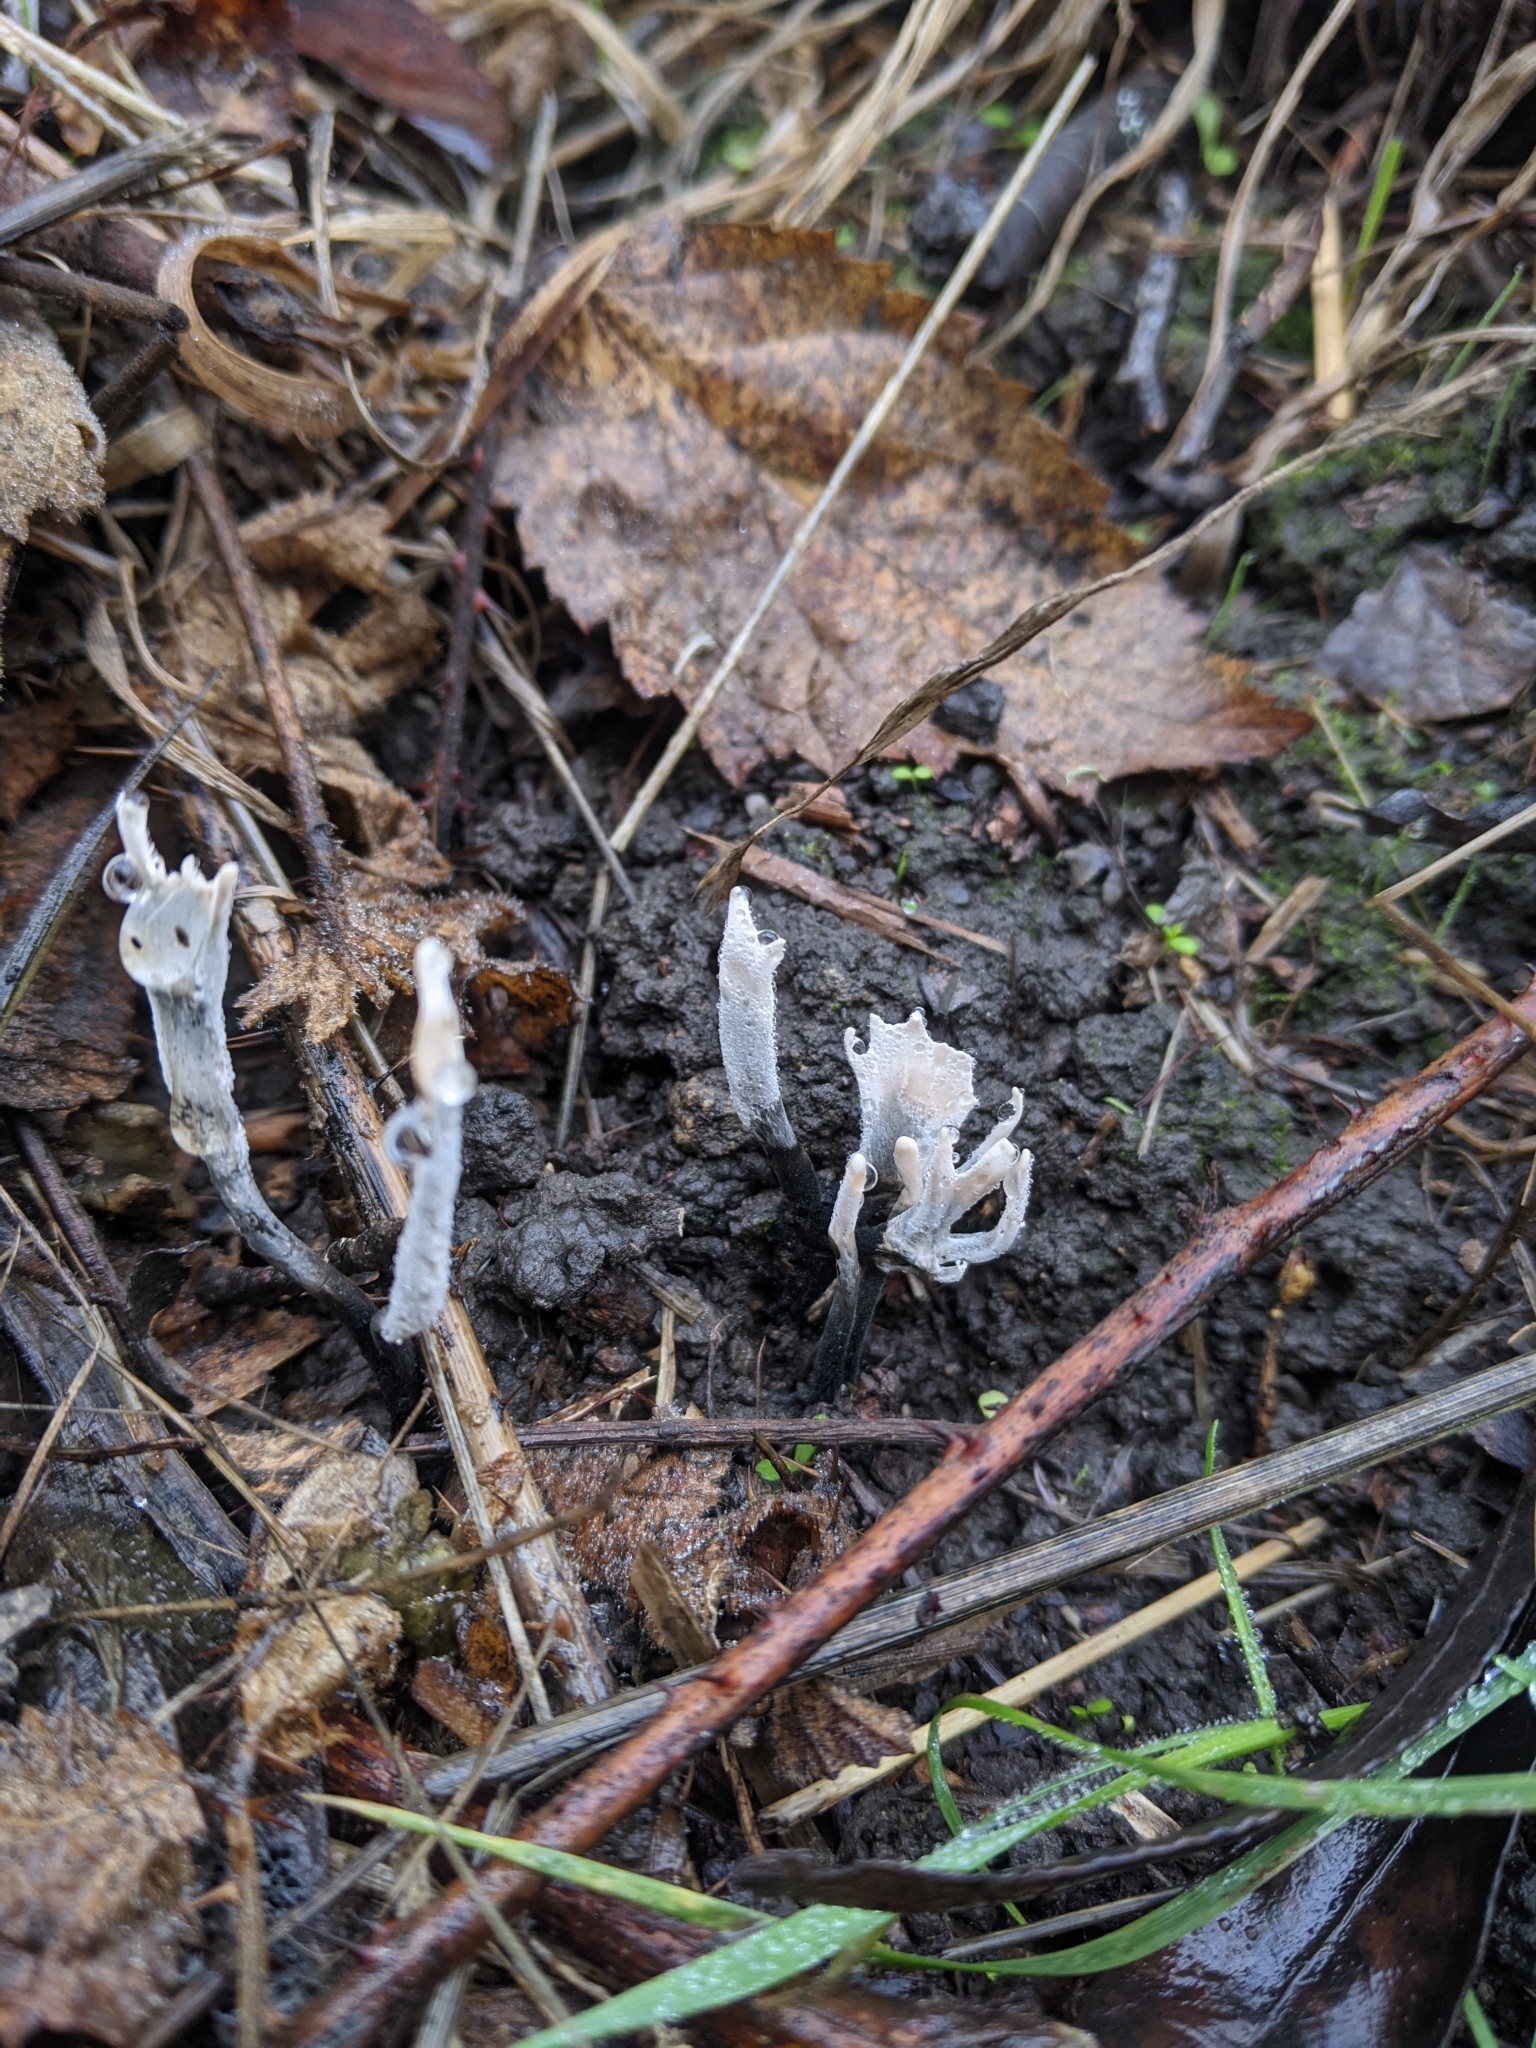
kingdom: Fungi
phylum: Ascomycota
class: Sordariomycetes
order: Xylariales
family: Xylariaceae
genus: Xylaria
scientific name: Xylaria hypoxylon
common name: Candle-snuff fungus
